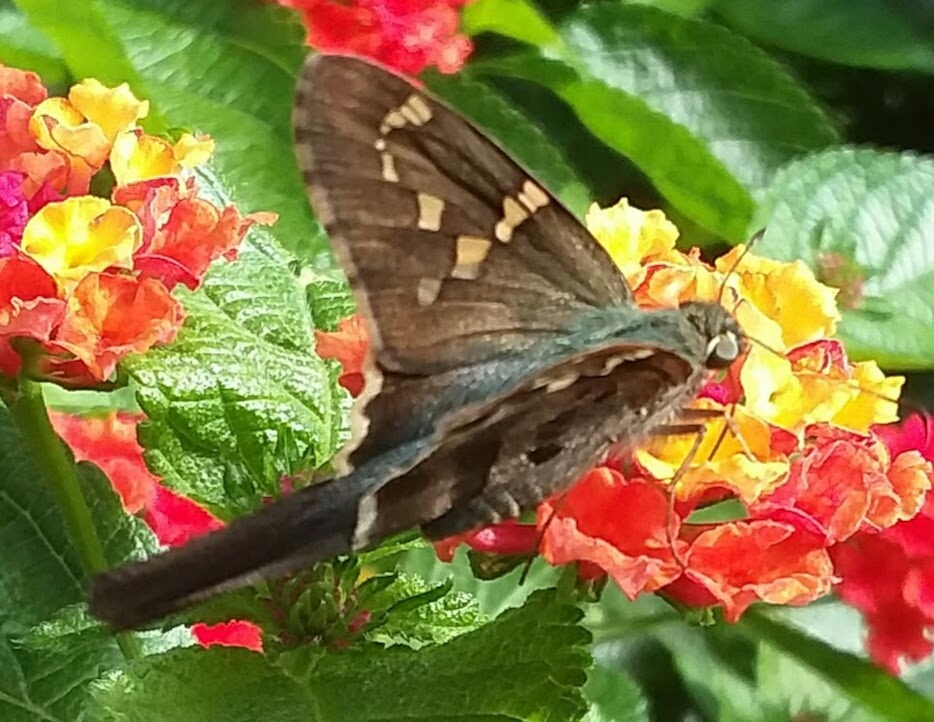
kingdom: Animalia
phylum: Arthropoda
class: Insecta
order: Lepidoptera
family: Hesperiidae
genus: Urbanus
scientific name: Urbanus proteus
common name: Long-tailed skipper
